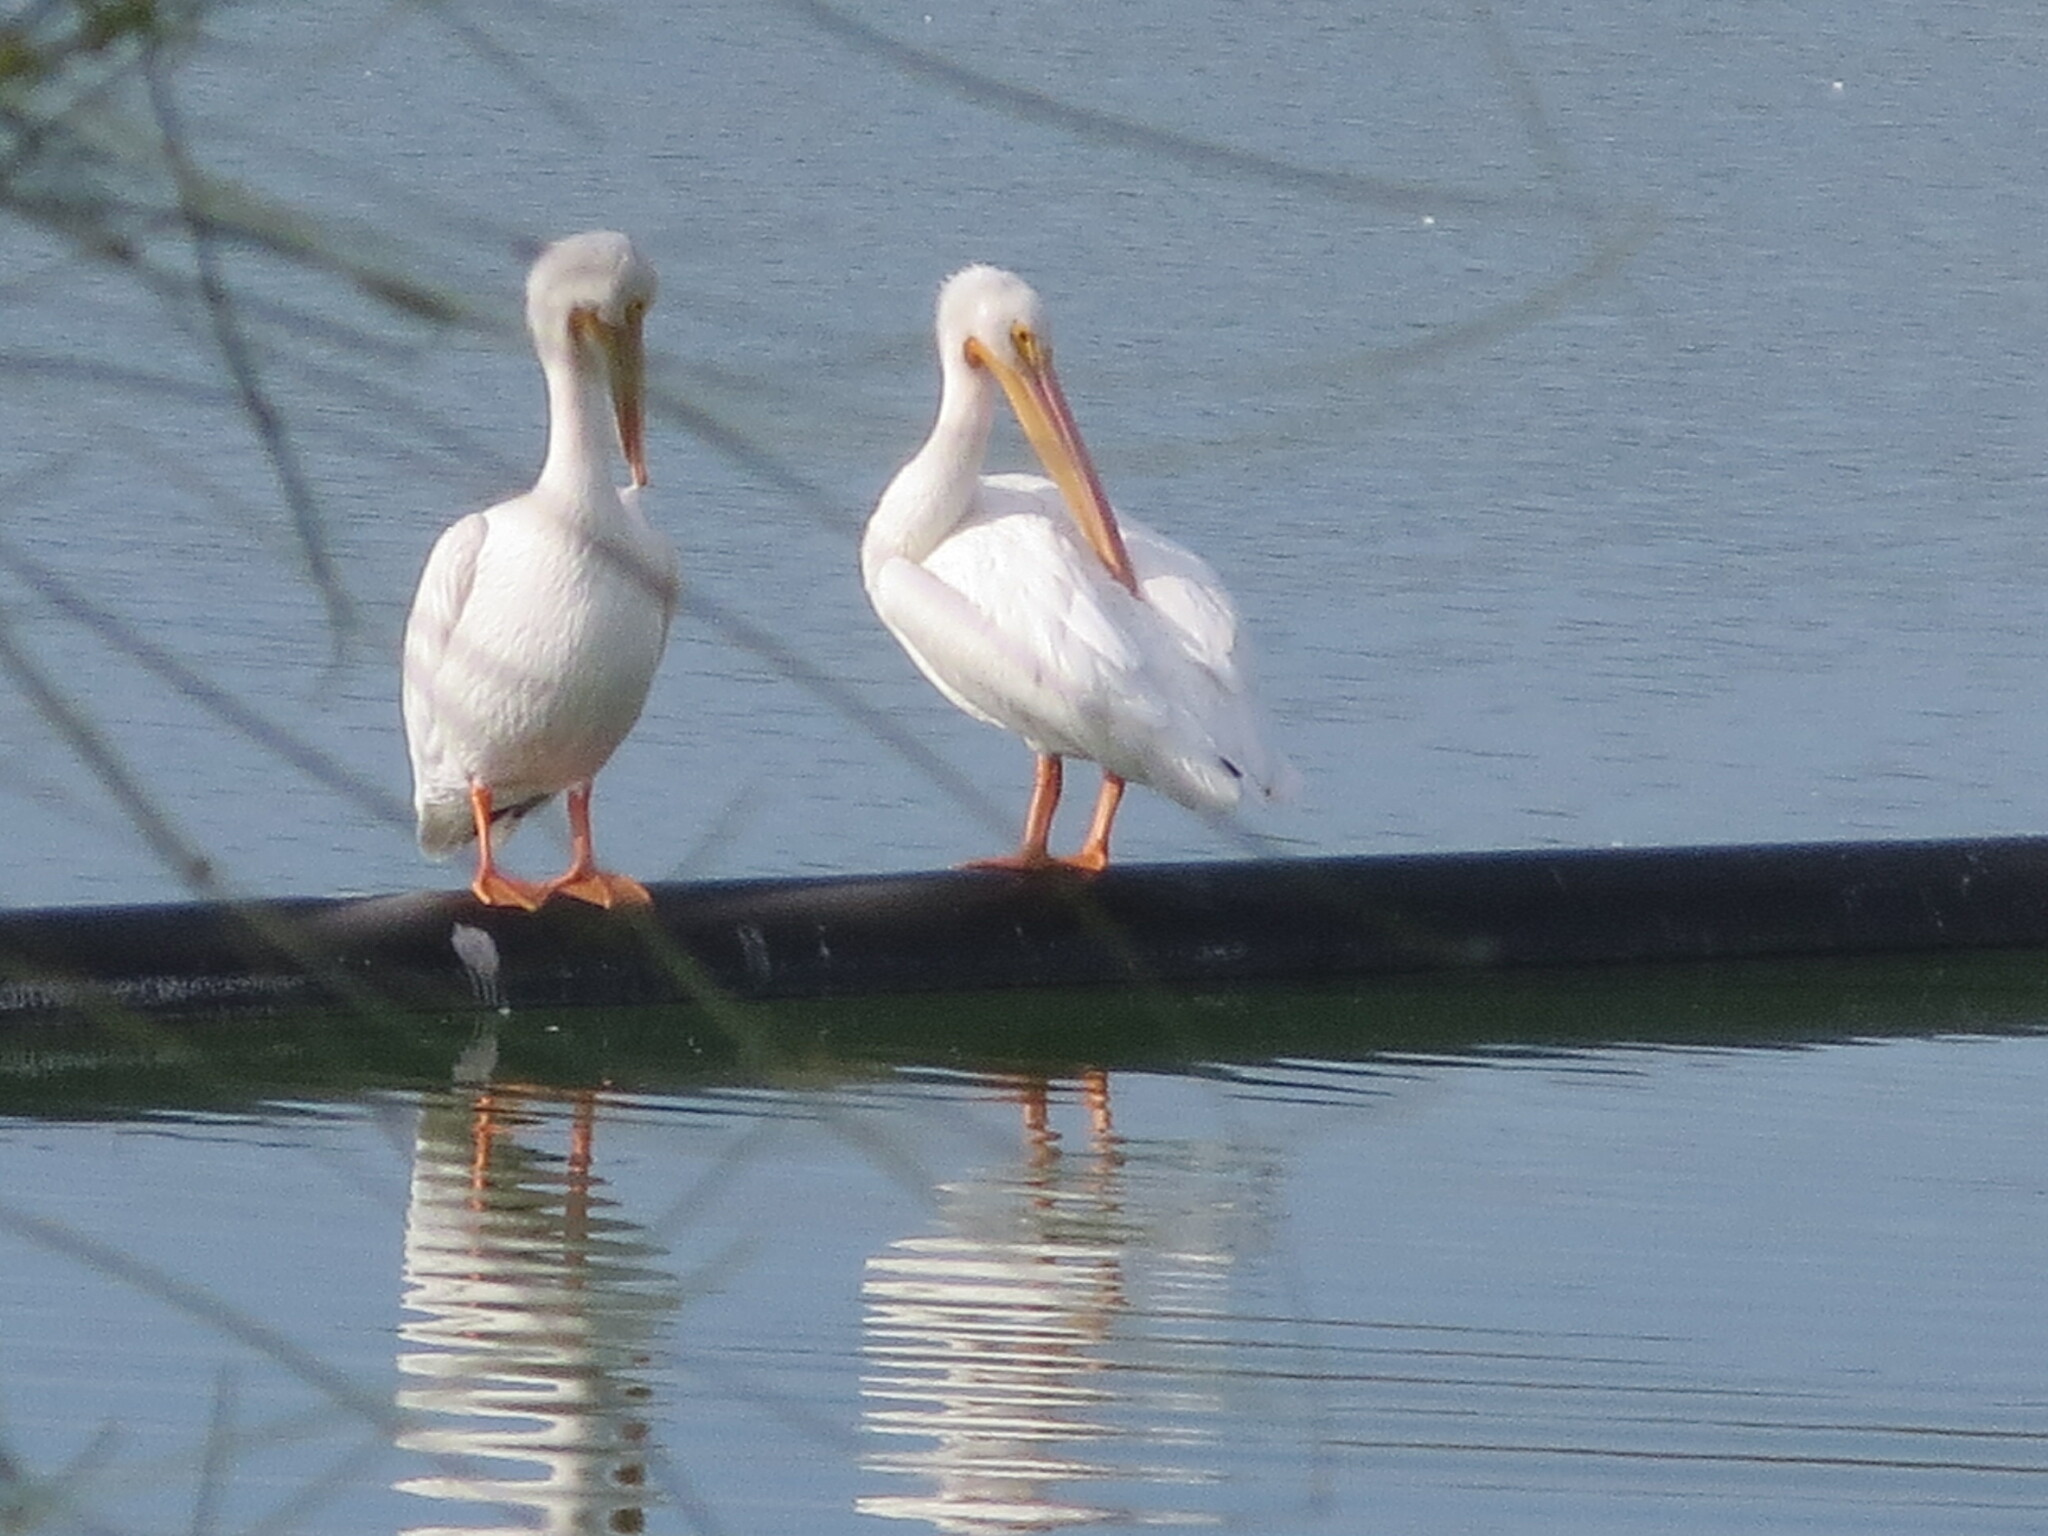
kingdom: Animalia
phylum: Chordata
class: Aves
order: Pelecaniformes
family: Pelecanidae
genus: Pelecanus
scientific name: Pelecanus erythrorhynchos
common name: American white pelican
